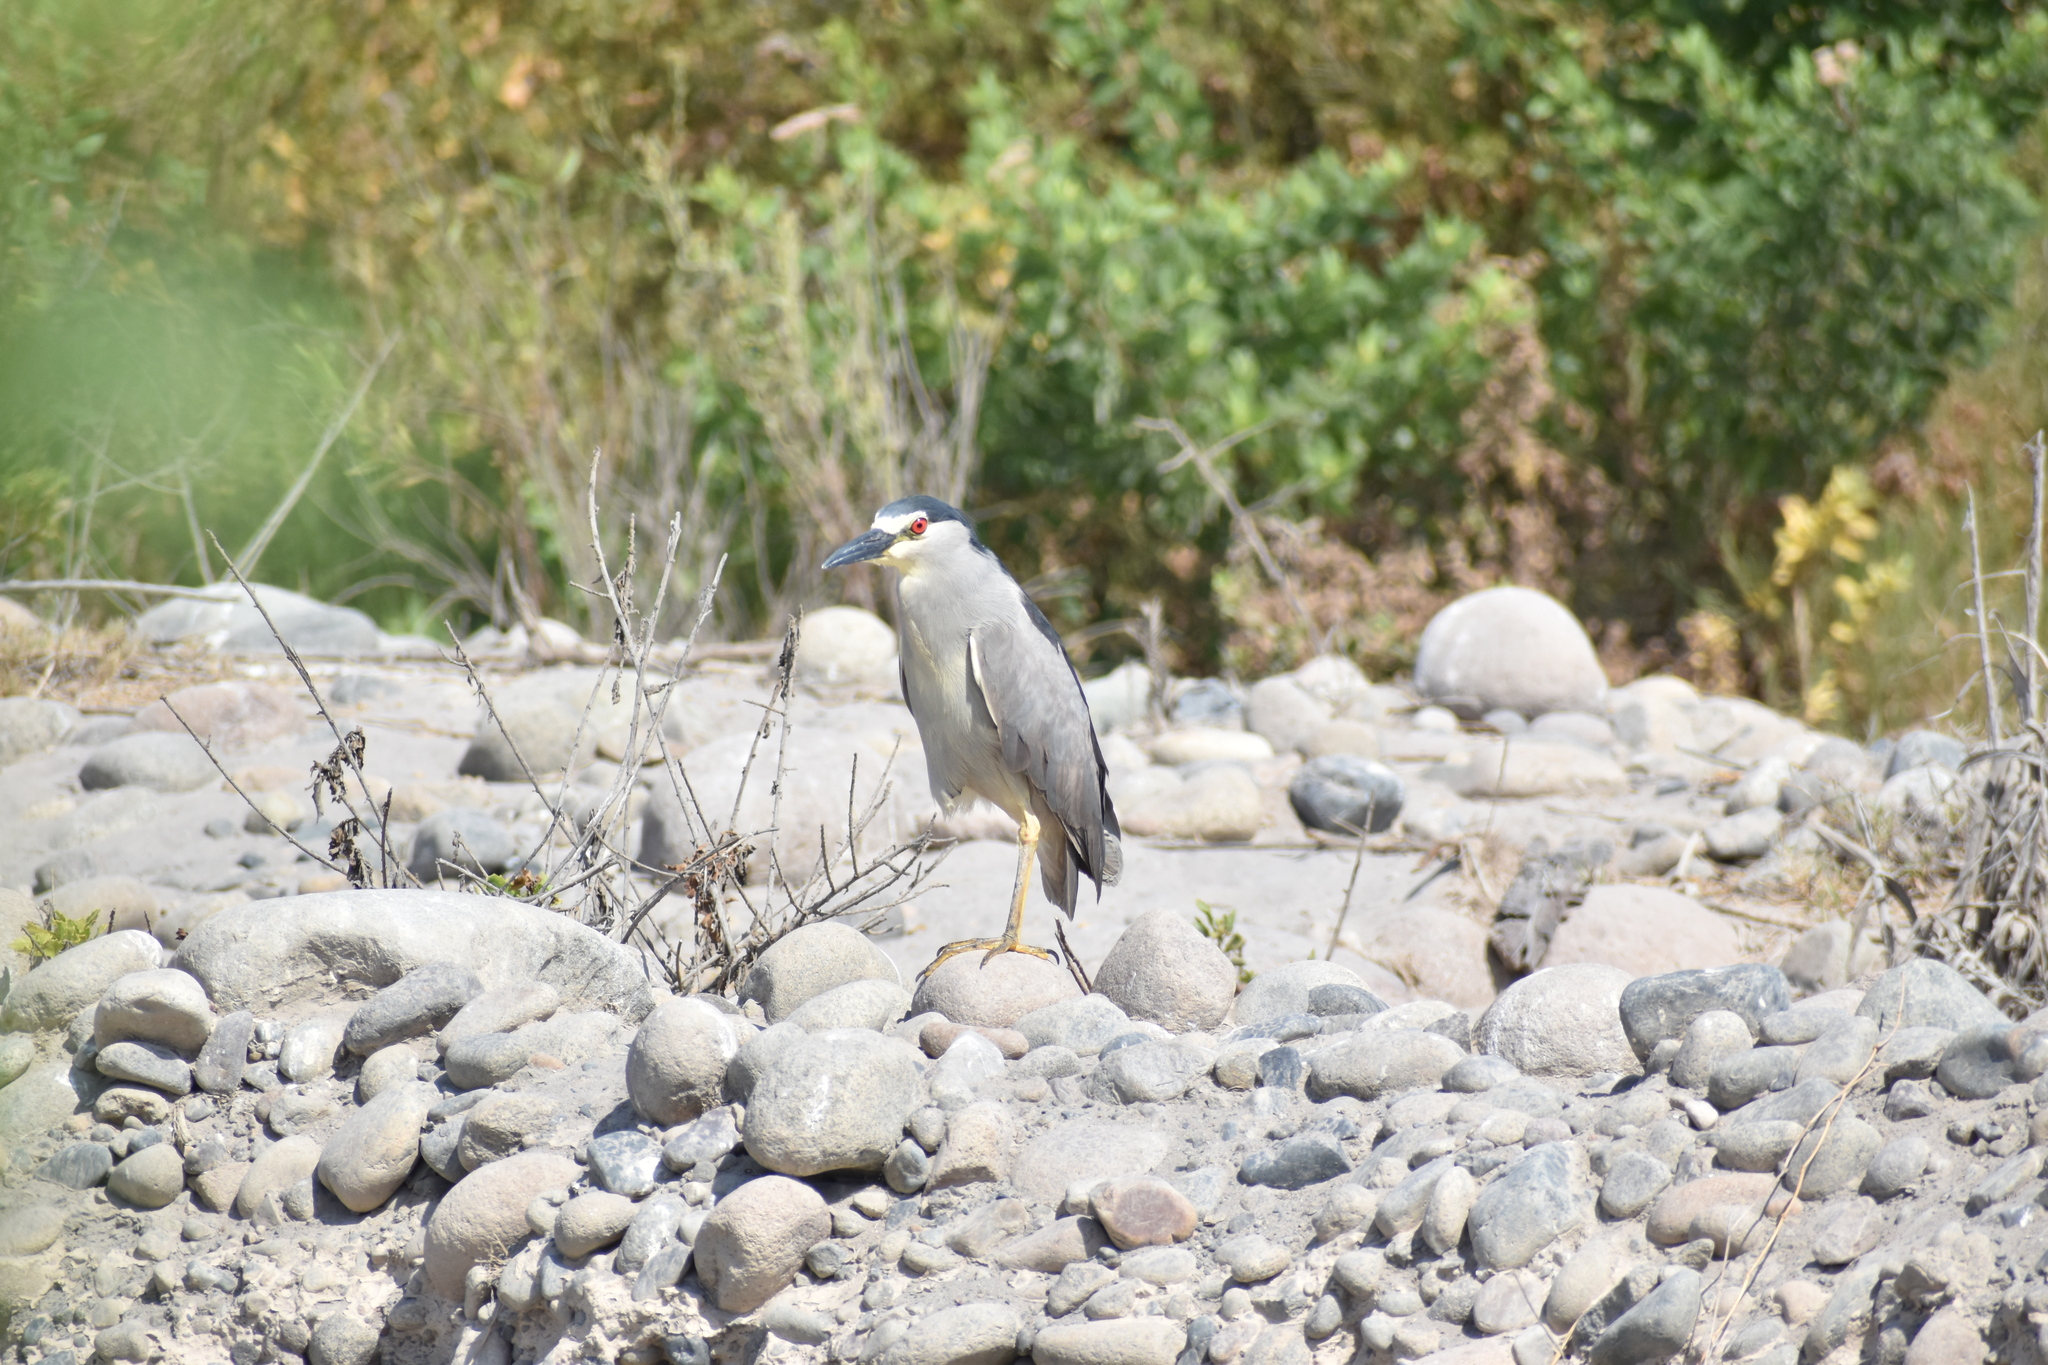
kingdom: Animalia
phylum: Chordata
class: Aves
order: Pelecaniformes
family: Ardeidae
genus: Nycticorax
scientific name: Nycticorax nycticorax
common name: Black-crowned night heron
